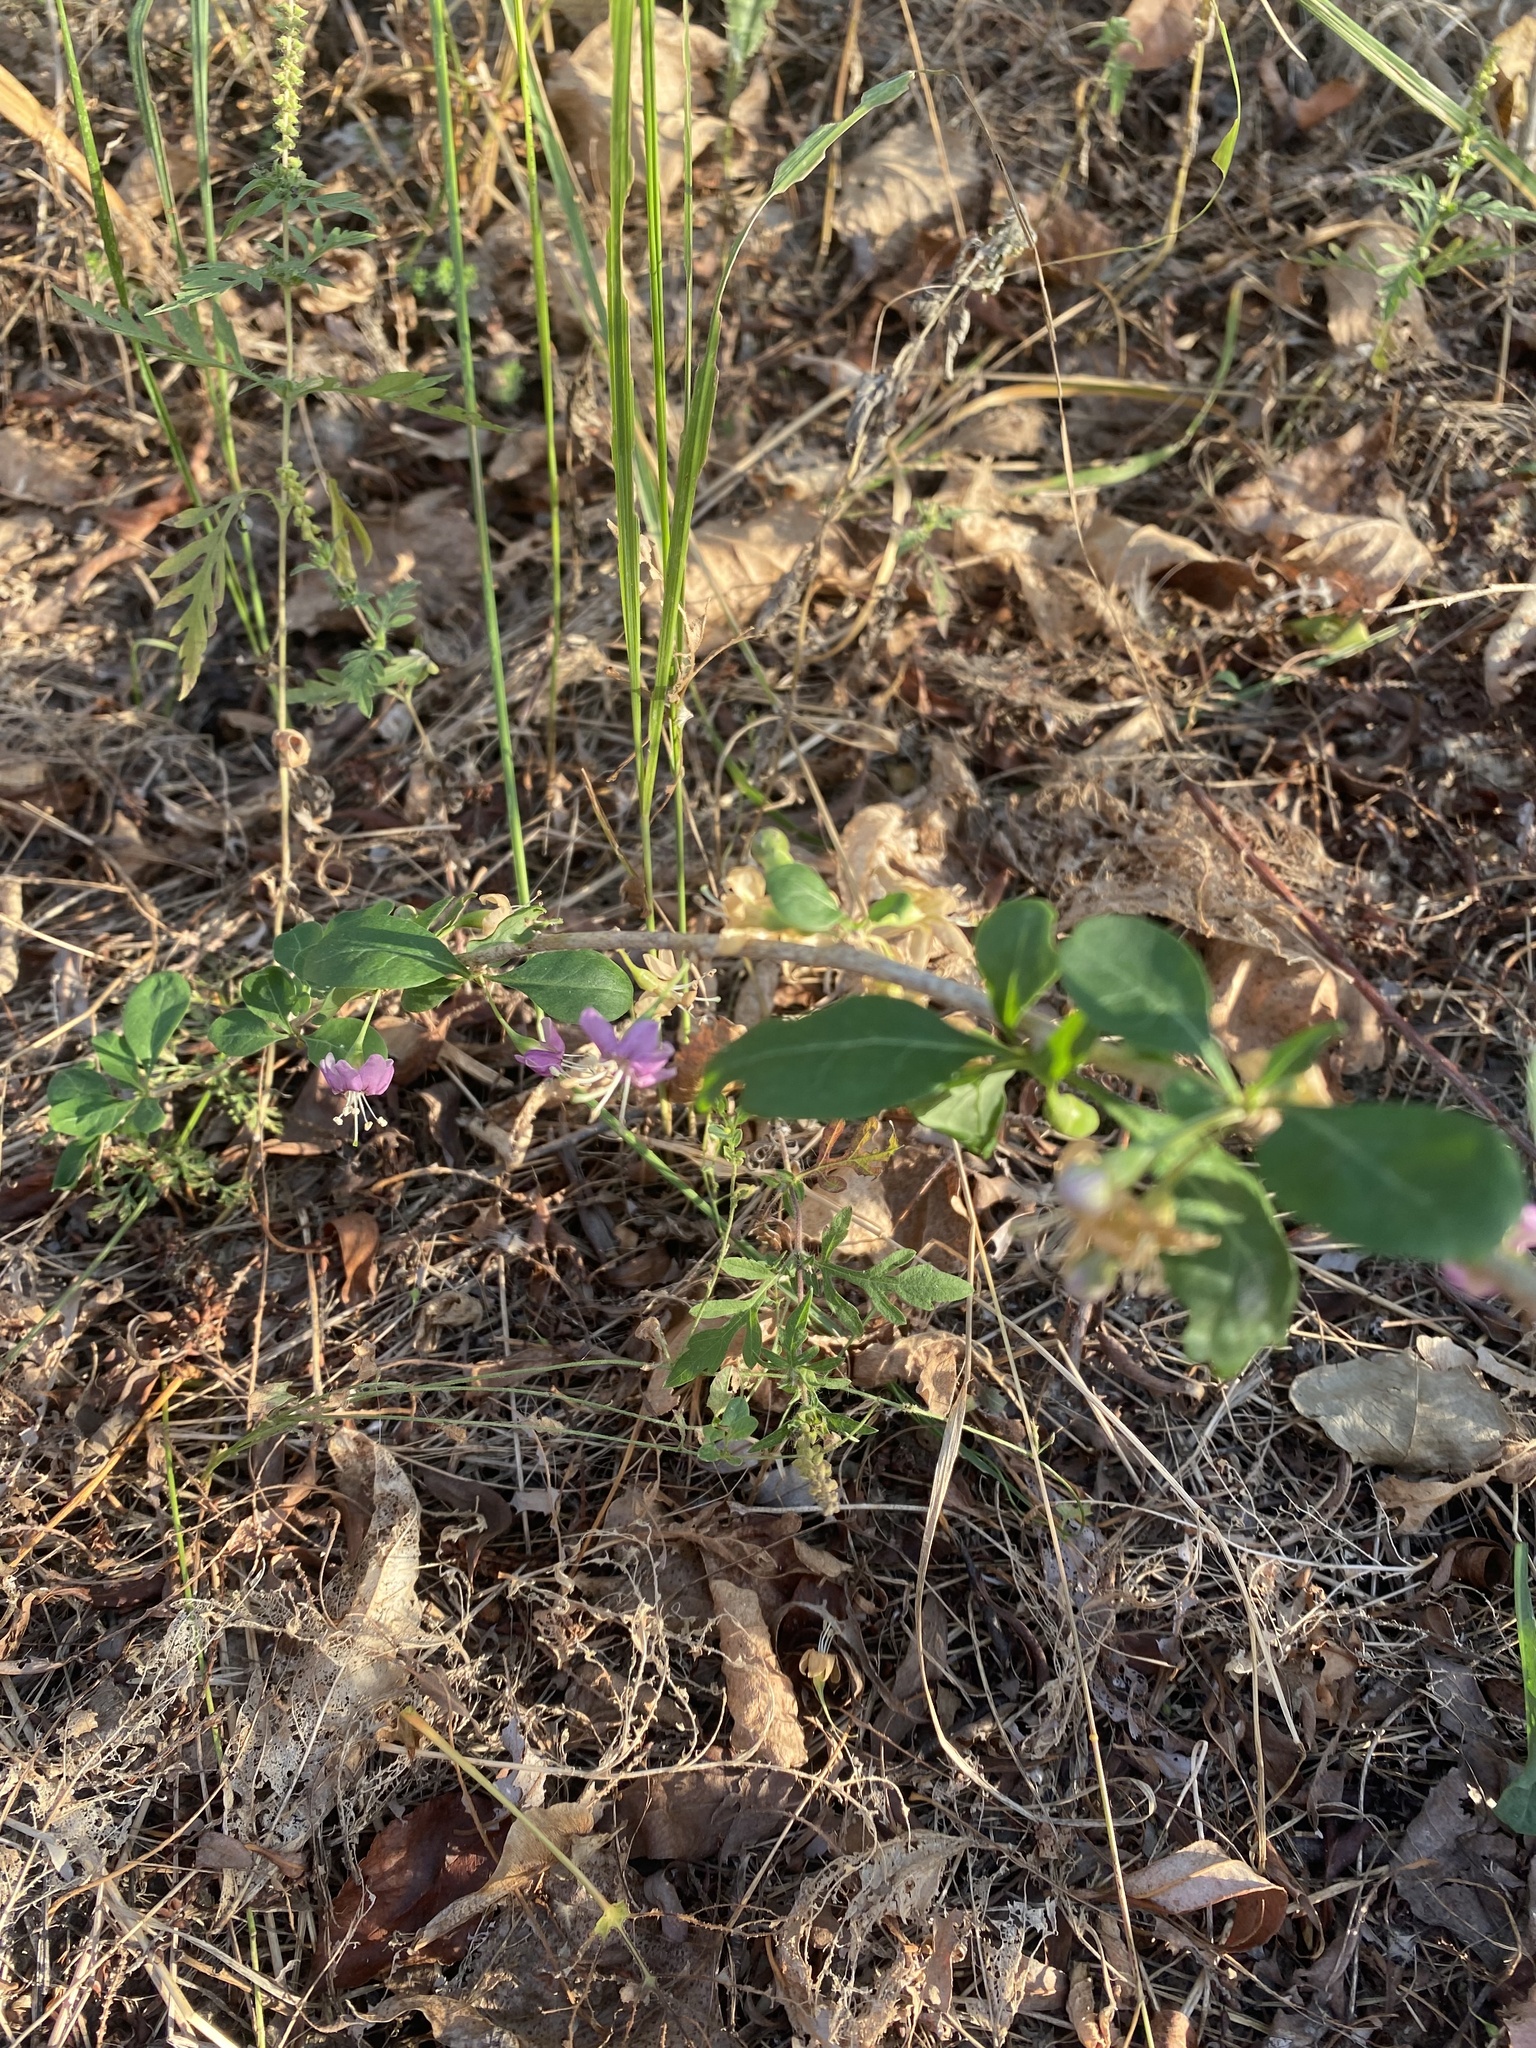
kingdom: Plantae
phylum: Tracheophyta
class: Magnoliopsida
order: Solanales
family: Solanaceae
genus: Lycium
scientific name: Lycium barbarum
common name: Duke of argyll's teaplant
